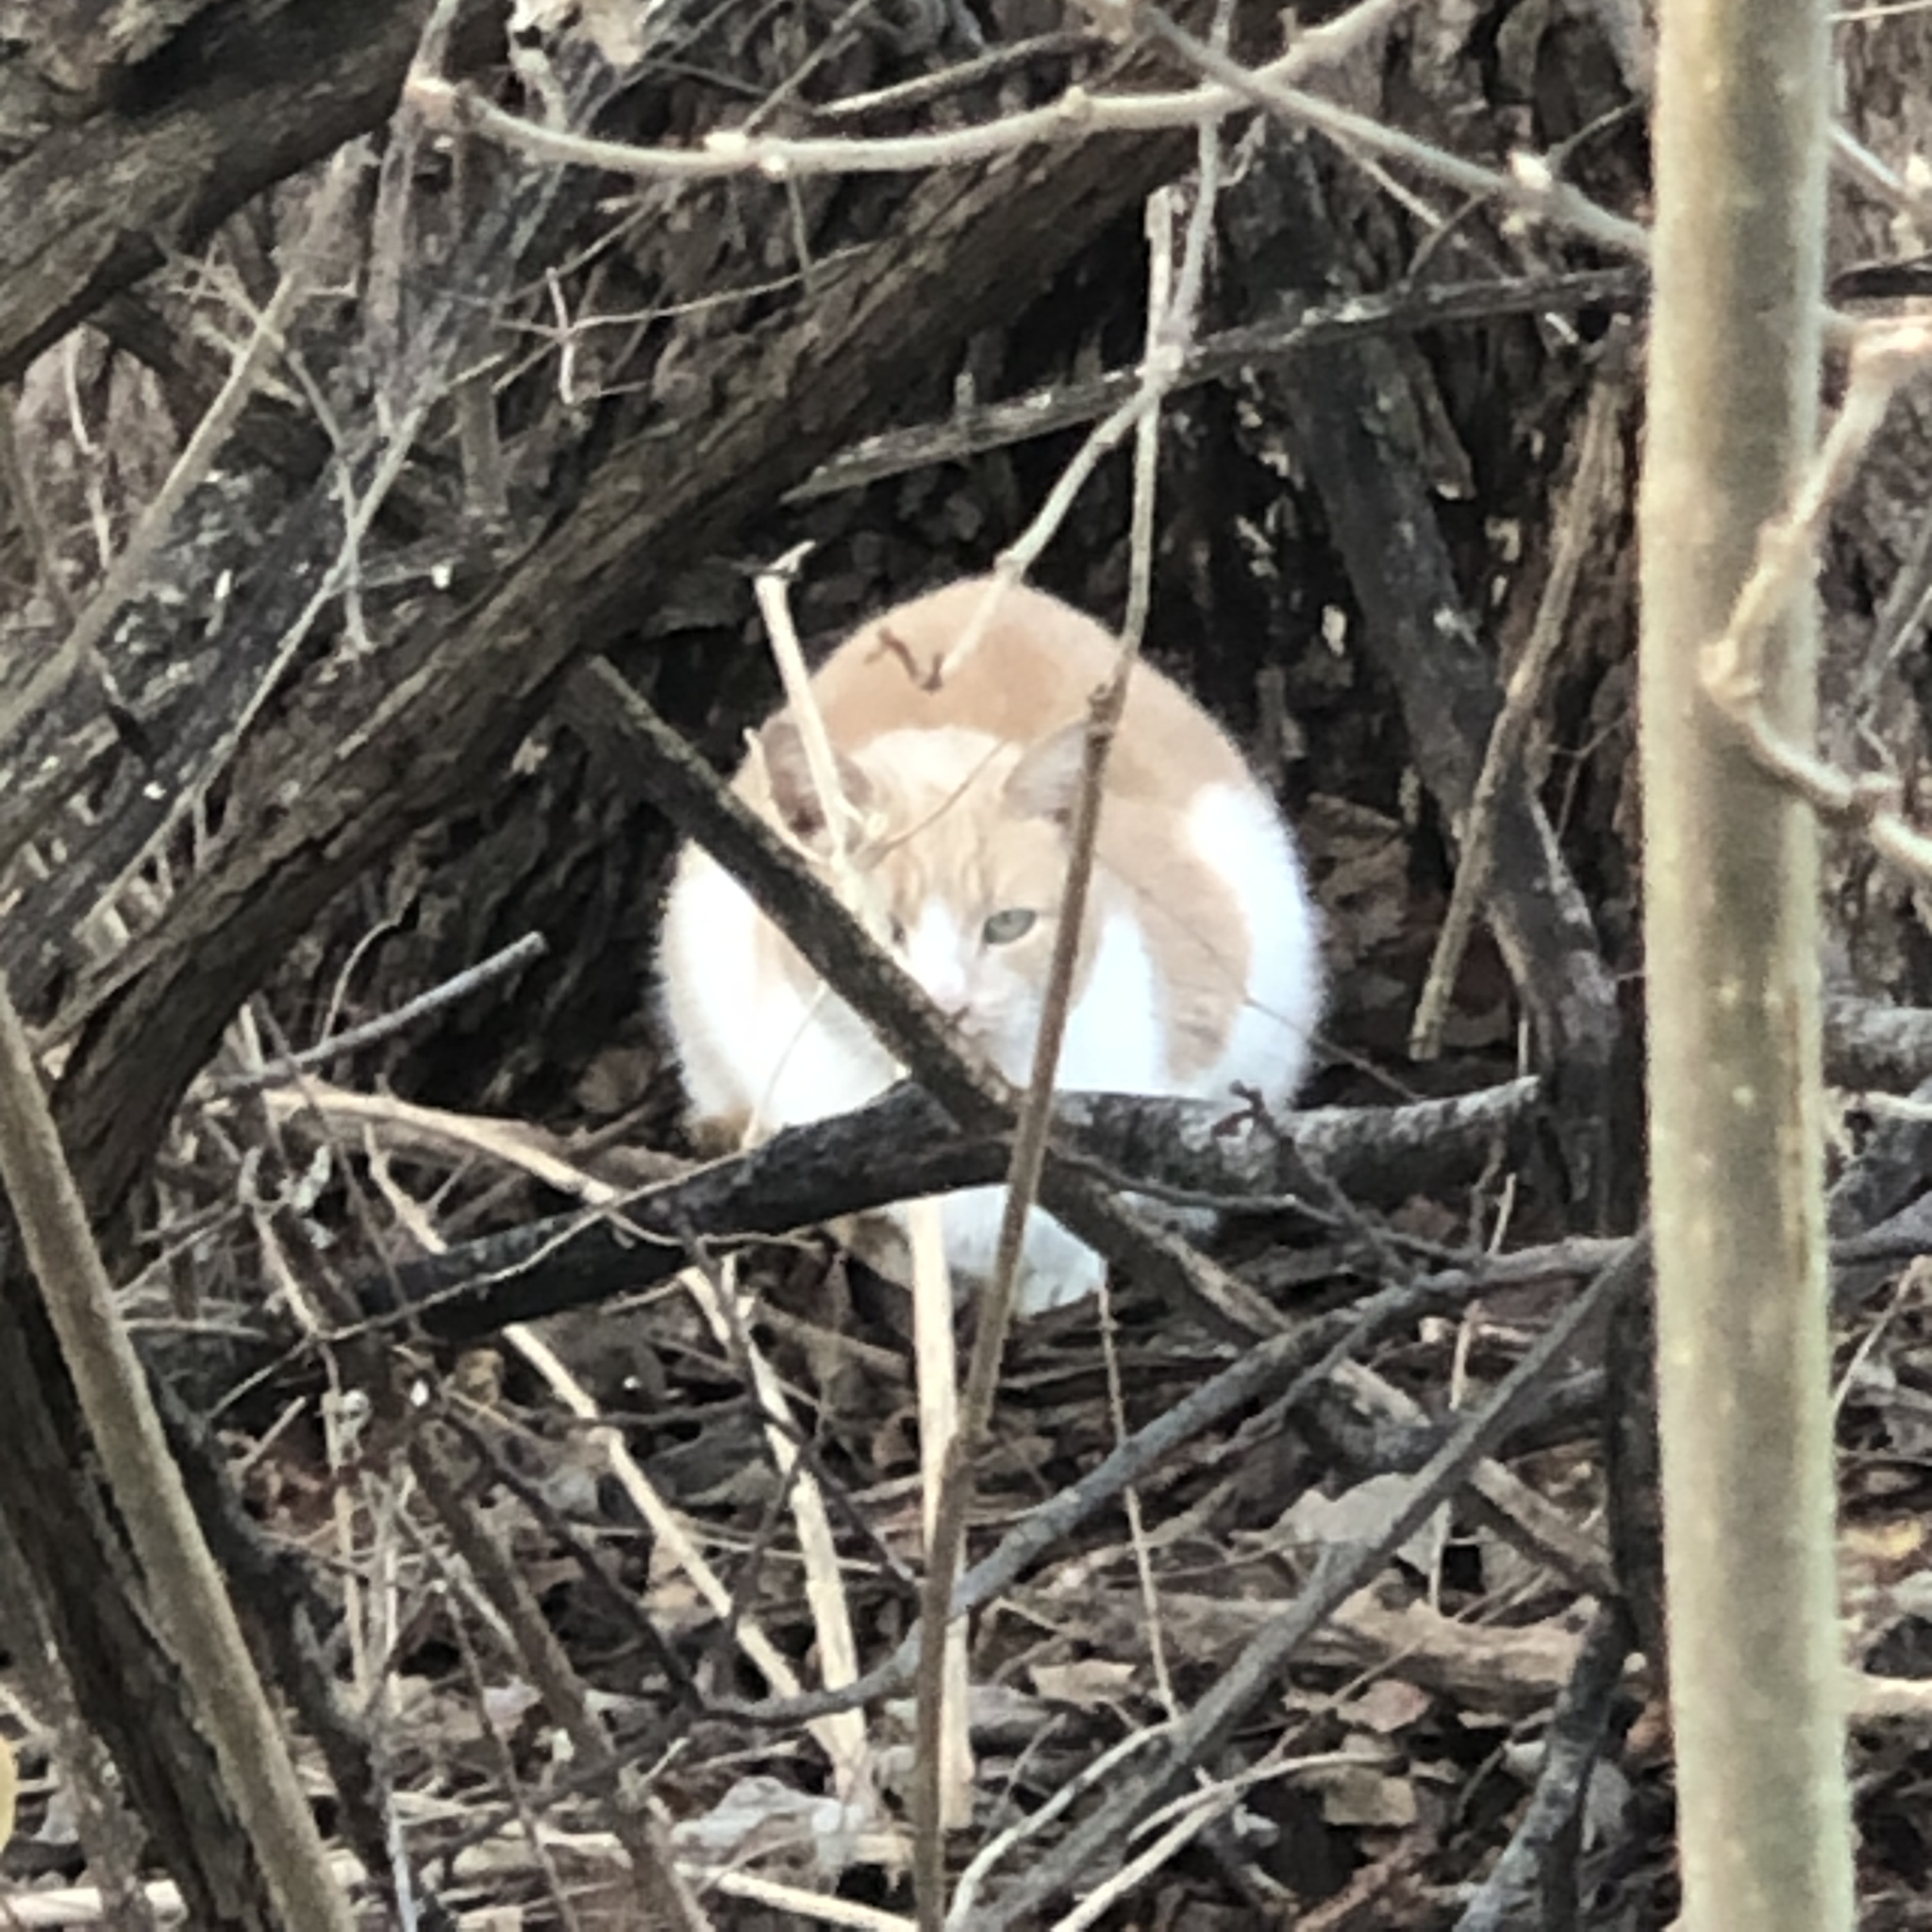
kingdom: Animalia
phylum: Chordata
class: Mammalia
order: Carnivora
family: Felidae
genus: Felis
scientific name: Felis catus
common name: Domestic cat
